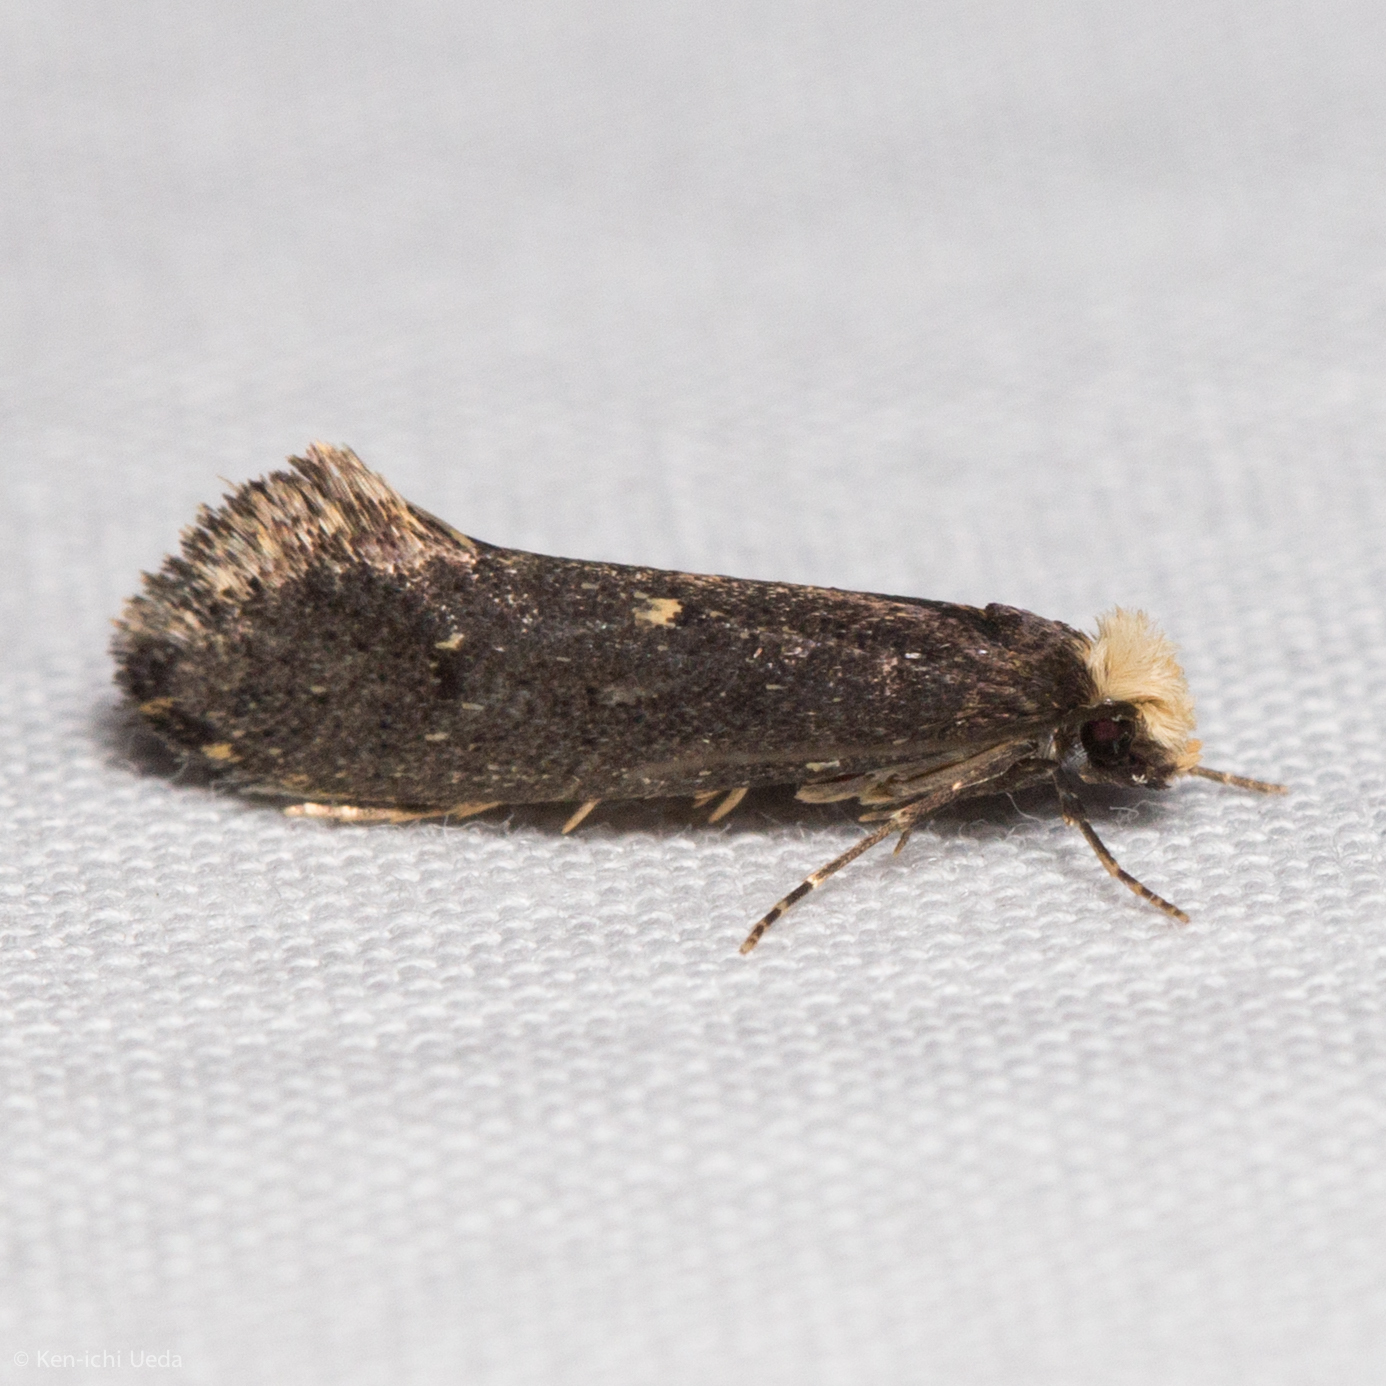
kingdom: Animalia
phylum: Arthropoda
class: Insecta
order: Lepidoptera
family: Tineidae
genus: Tinea
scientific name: Tinea niveocapitella
